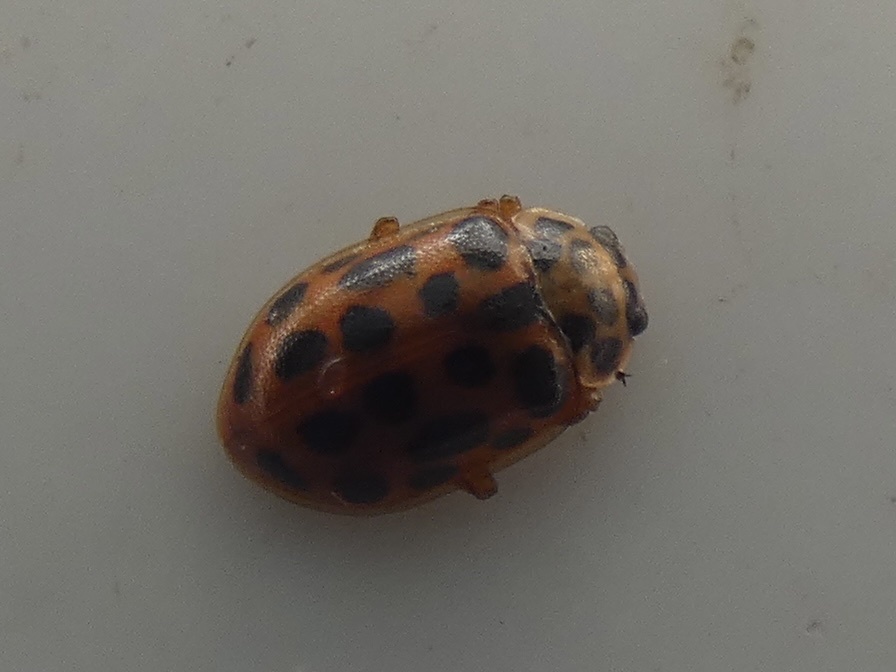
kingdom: Animalia
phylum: Arthropoda
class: Insecta
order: Coleoptera
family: Coccinellidae
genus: Anisosticta
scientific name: Anisosticta novemdecimpunctata
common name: Water ladybird
